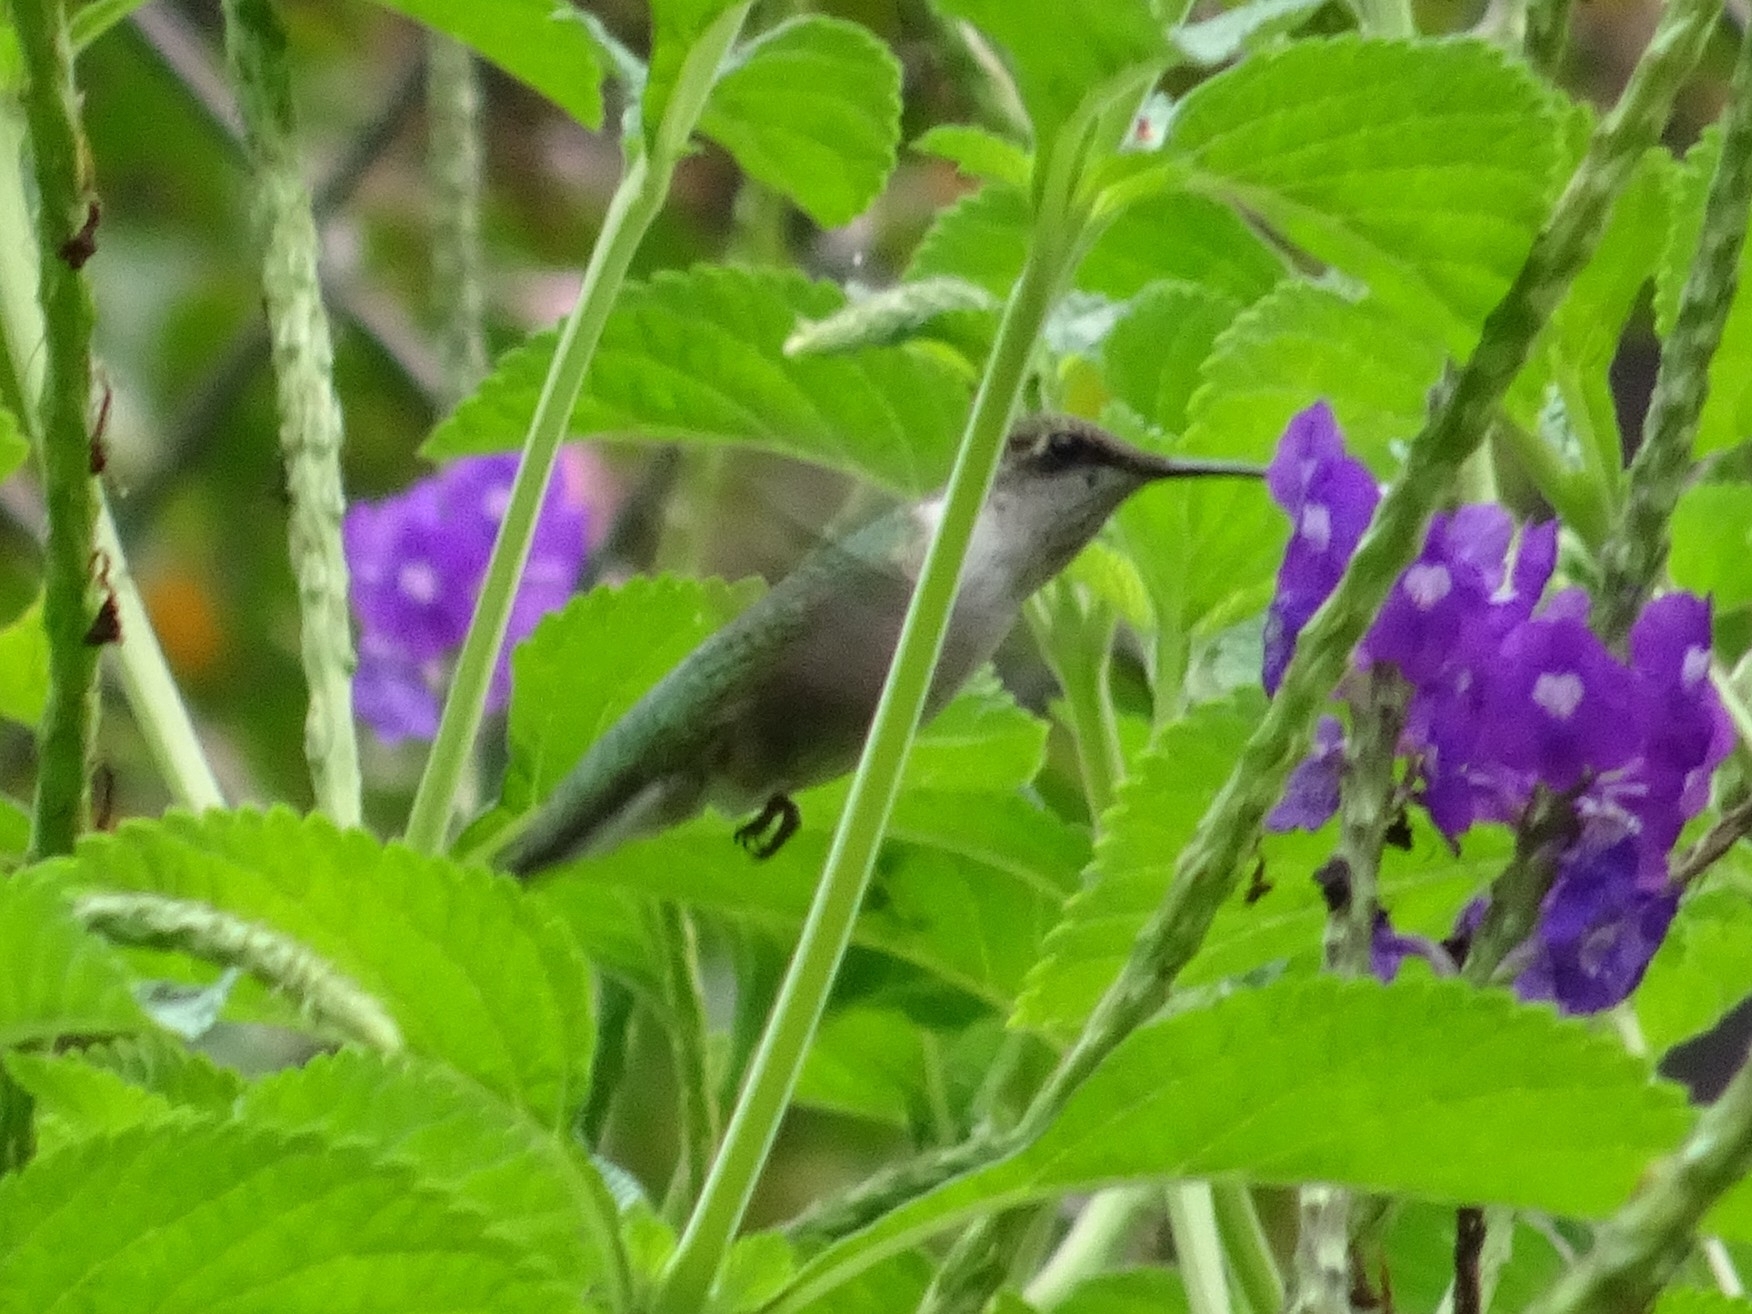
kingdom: Animalia
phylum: Chordata
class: Aves
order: Apodiformes
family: Trochilidae
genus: Archilochus
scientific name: Archilochus colubris
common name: Ruby-throated hummingbird
